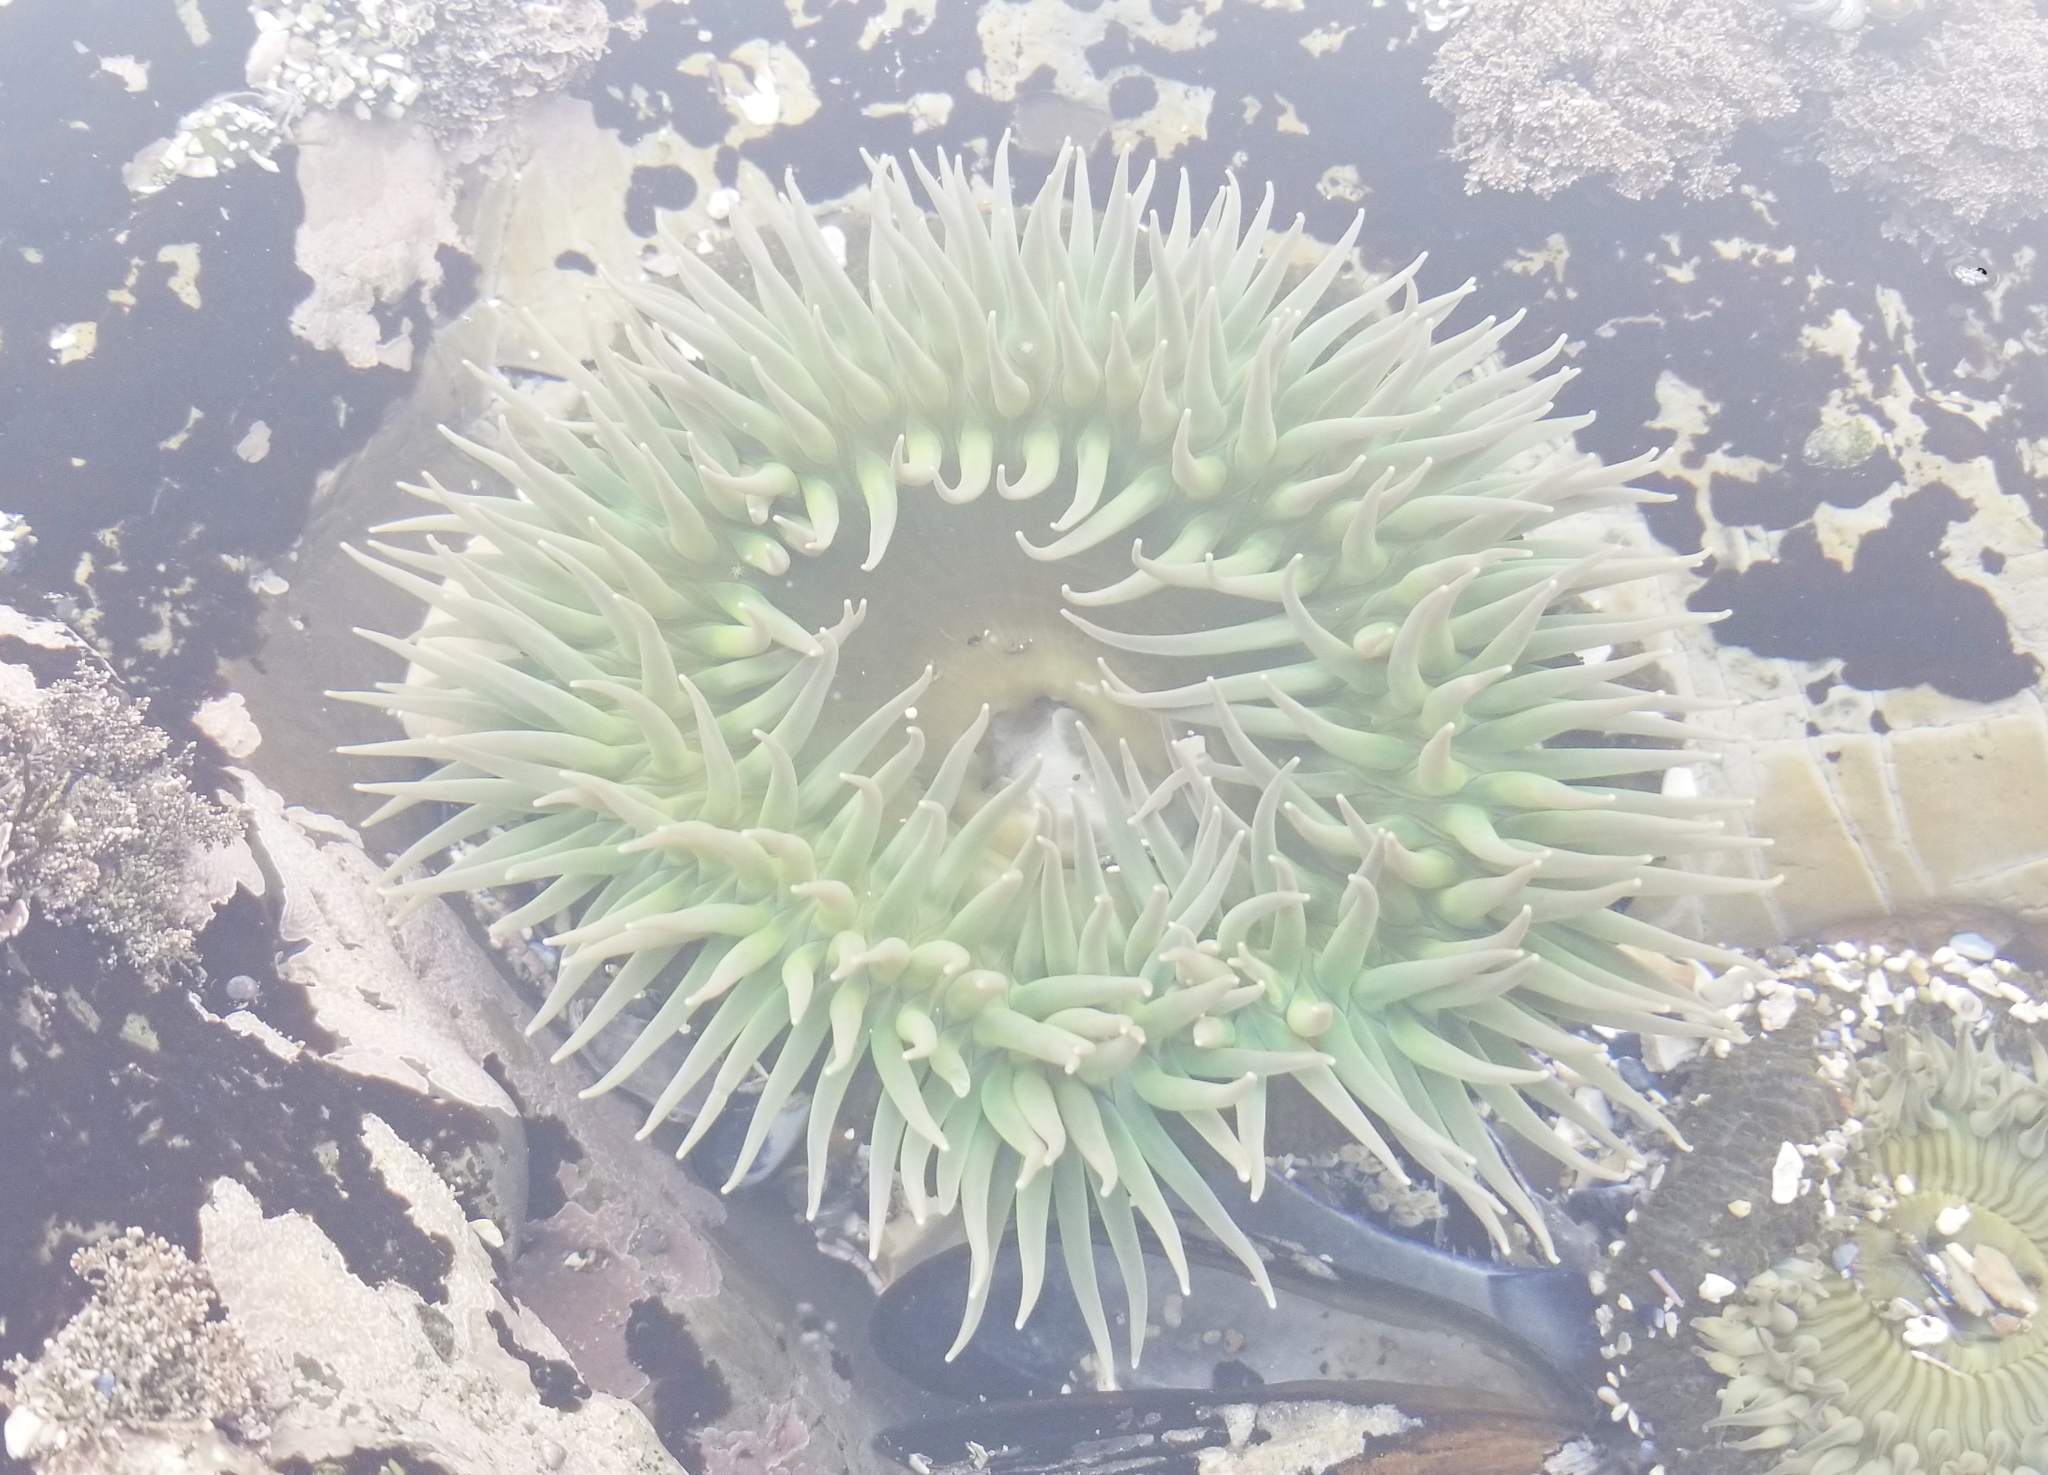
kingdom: Animalia
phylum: Cnidaria
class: Anthozoa
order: Actiniaria
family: Actiniidae
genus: Anthopleura
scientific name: Anthopleura xanthogrammica
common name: Giant green anemone
